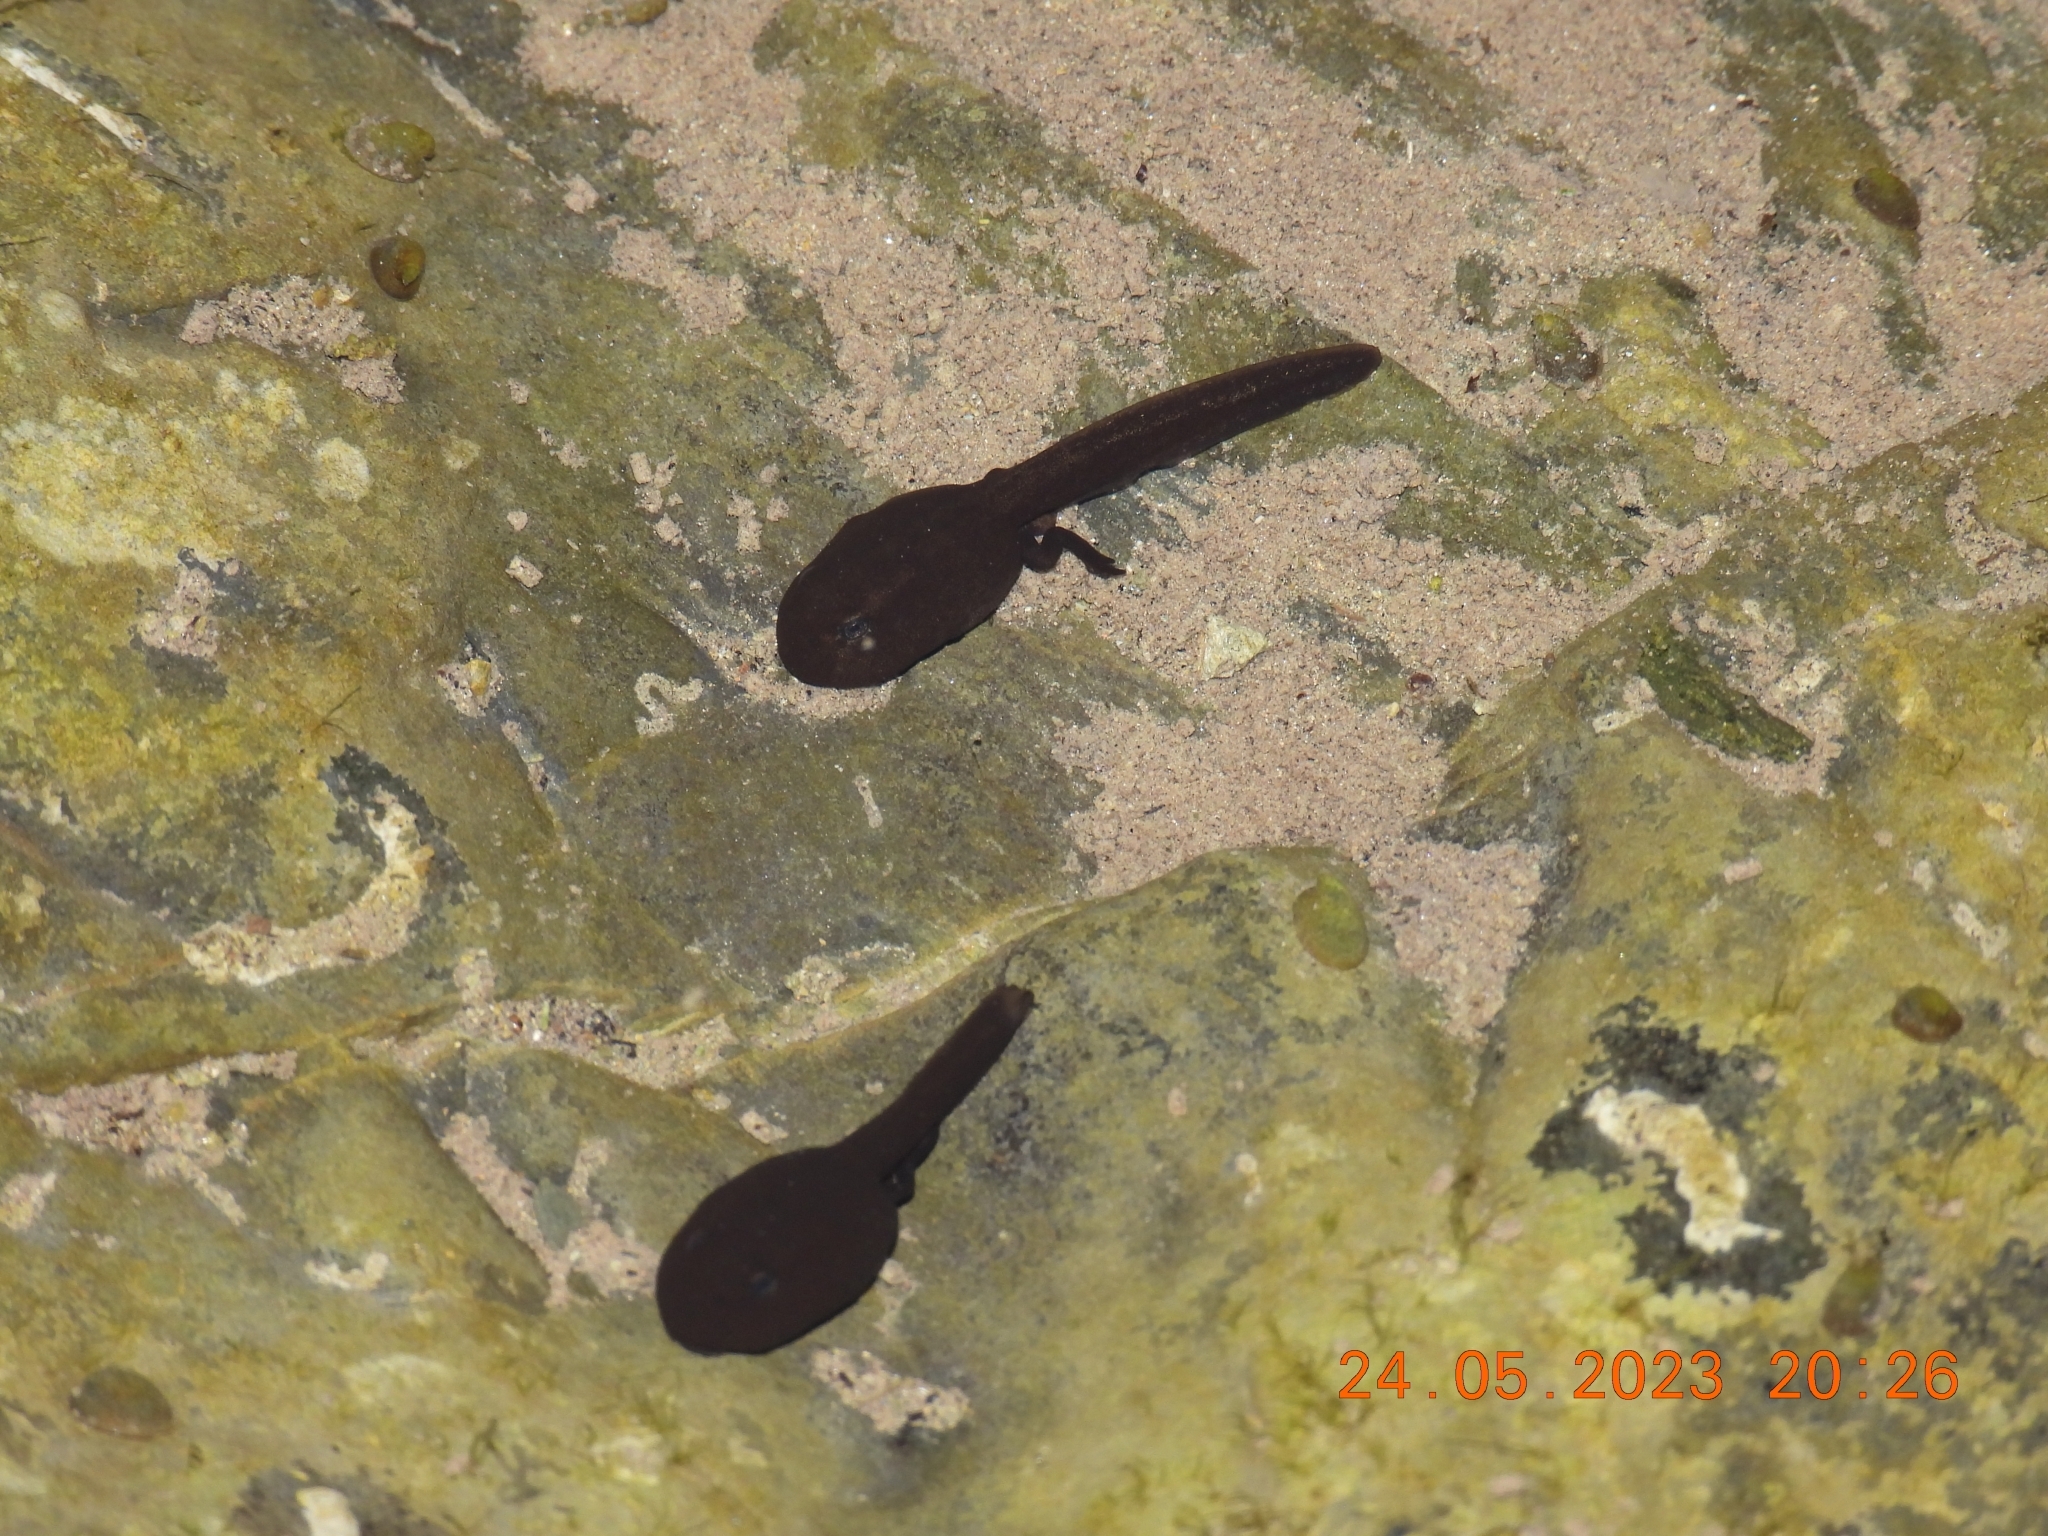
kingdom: Animalia
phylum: Chordata
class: Amphibia
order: Anura
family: Bufonidae
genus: Bufo
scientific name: Bufo bufo
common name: Common toad
